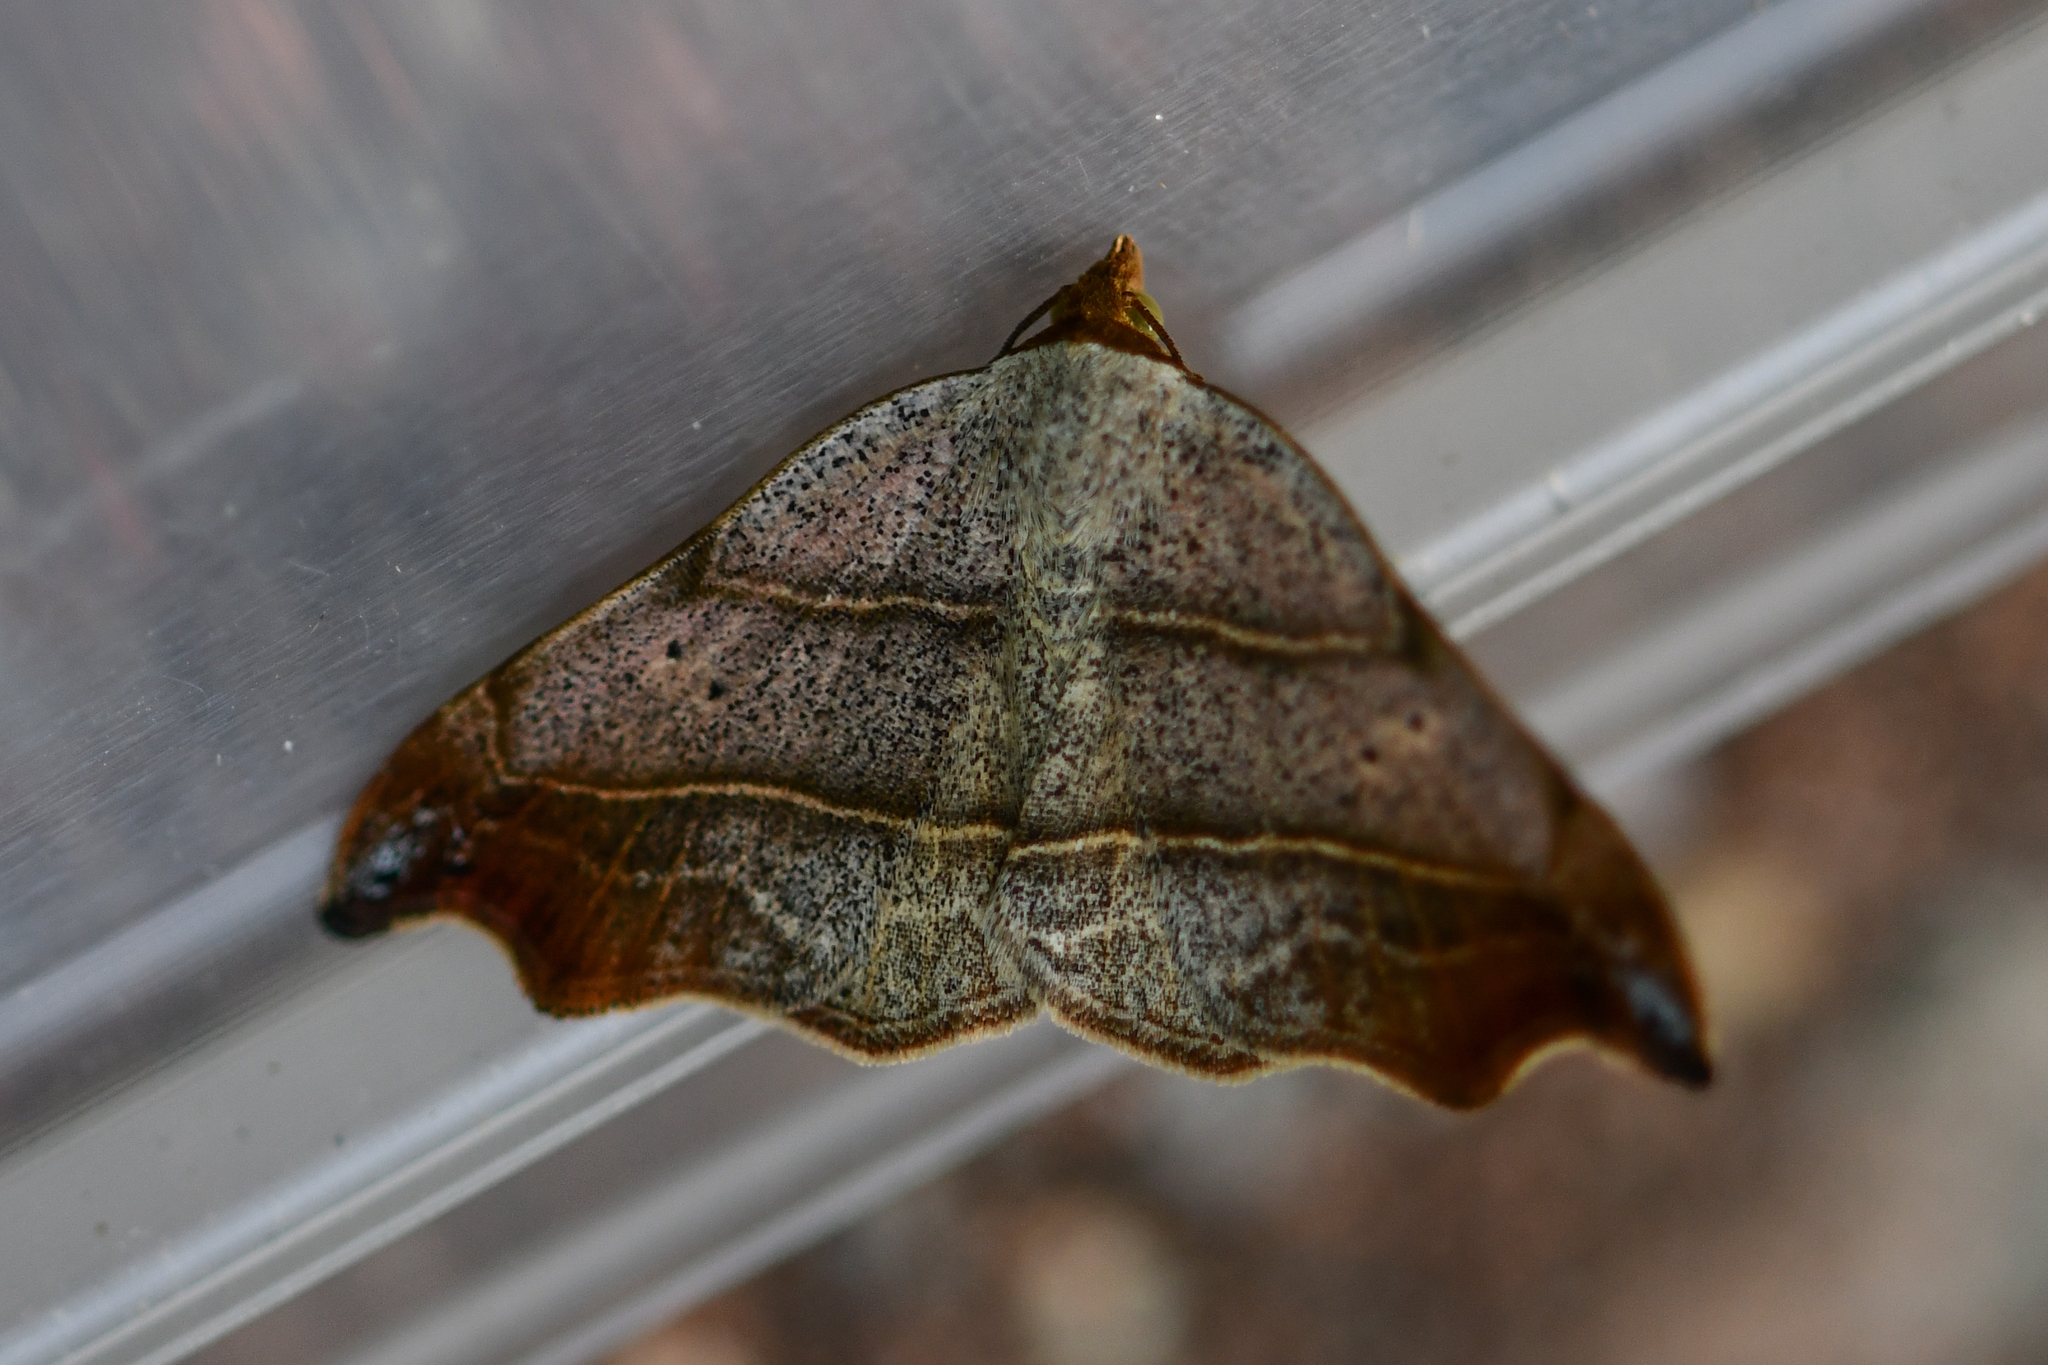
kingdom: Animalia
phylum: Arthropoda
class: Insecta
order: Lepidoptera
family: Erebidae
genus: Laspeyria
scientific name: Laspeyria flexula
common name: Beautiful hook-tip
